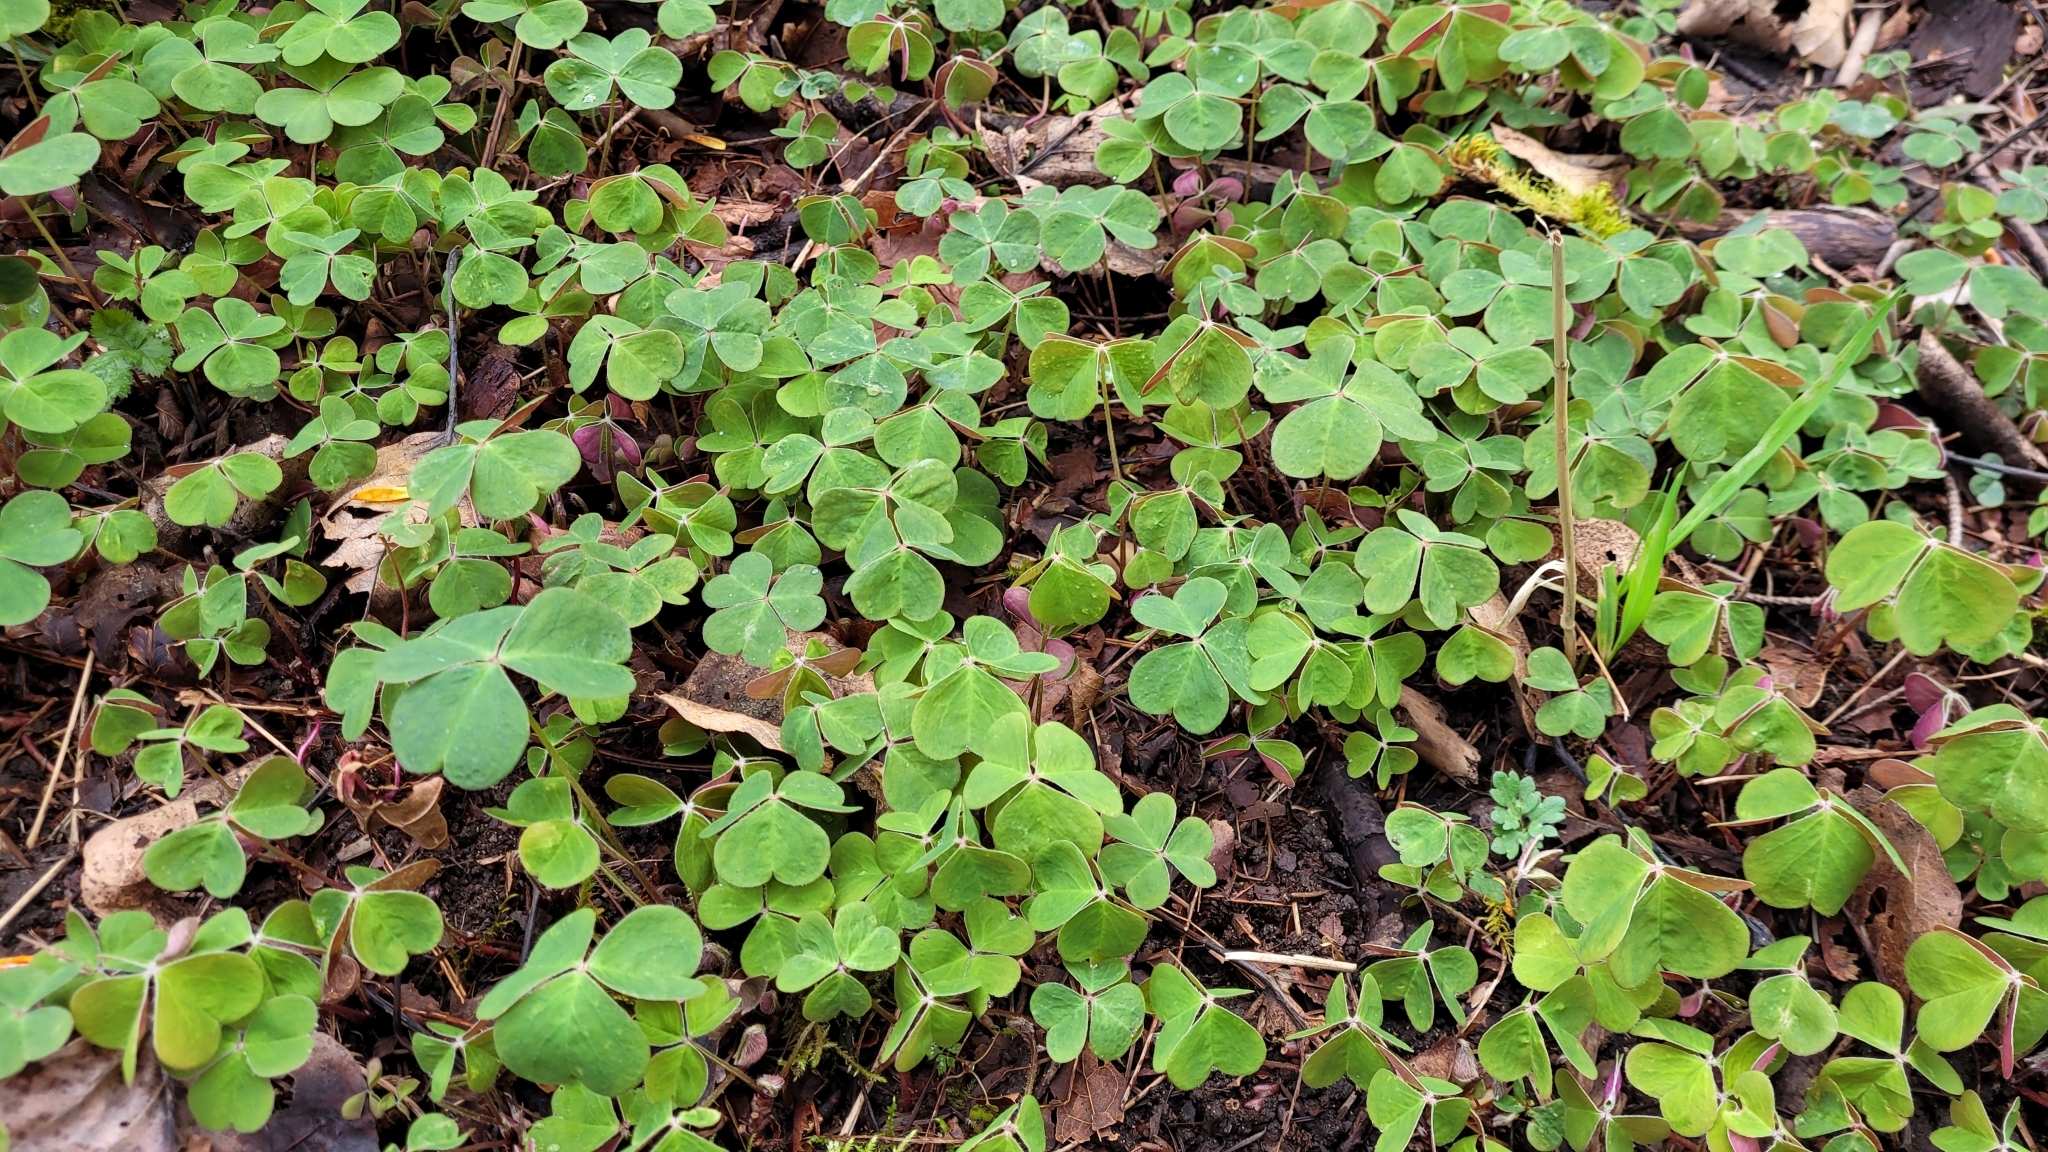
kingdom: Plantae
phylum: Tracheophyta
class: Magnoliopsida
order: Oxalidales
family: Oxalidaceae
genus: Oxalis
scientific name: Oxalis oregana
